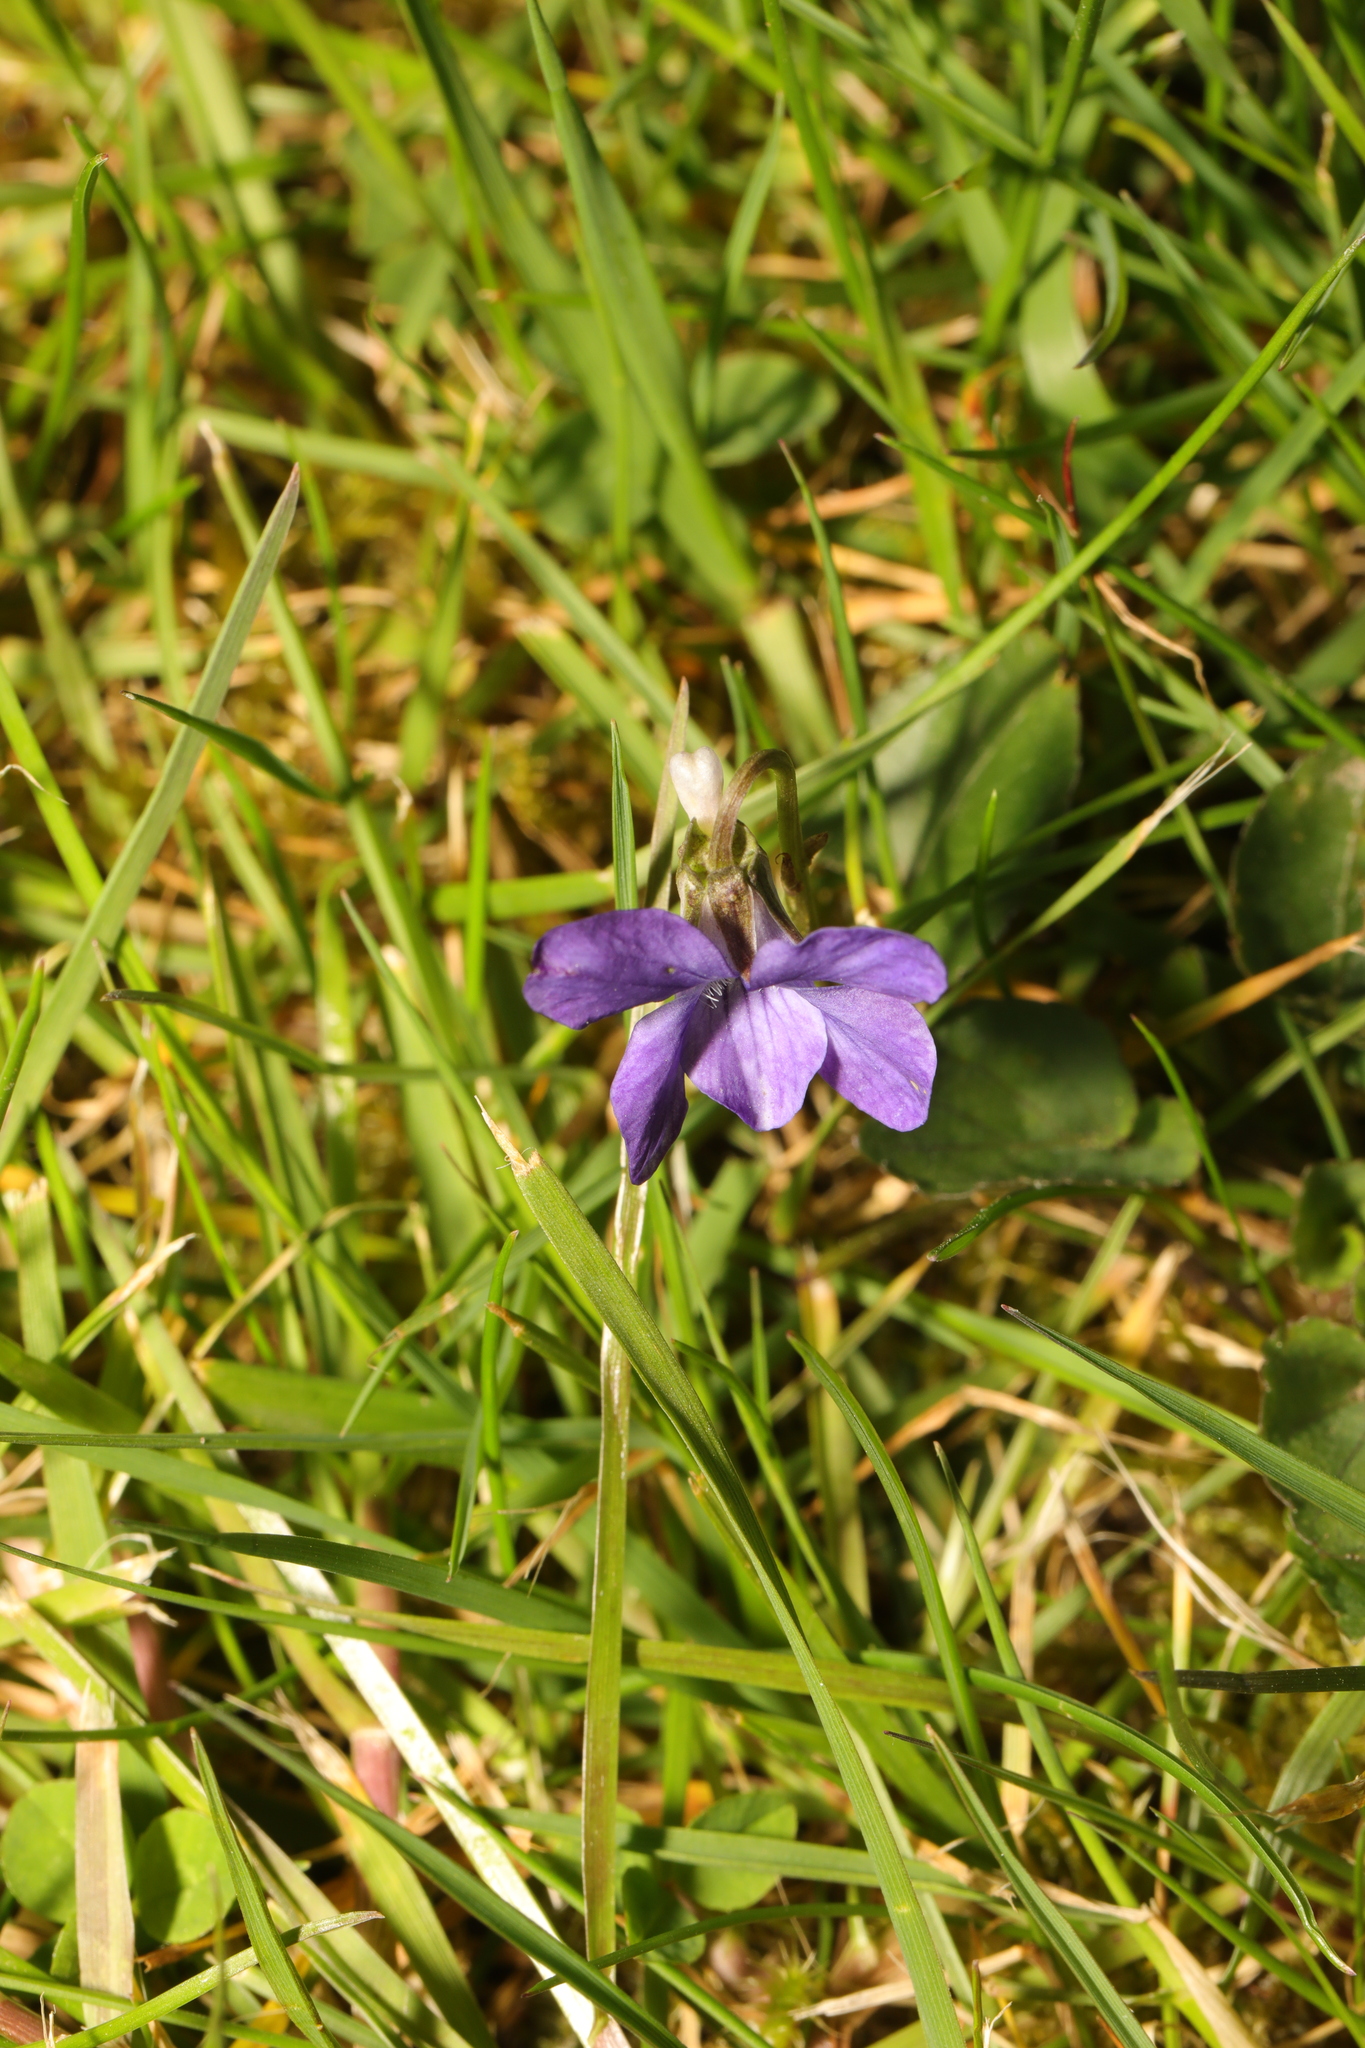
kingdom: Plantae
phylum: Tracheophyta
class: Magnoliopsida
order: Malpighiales
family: Violaceae
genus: Viola
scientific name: Viola riviniana
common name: Common dog-violet
